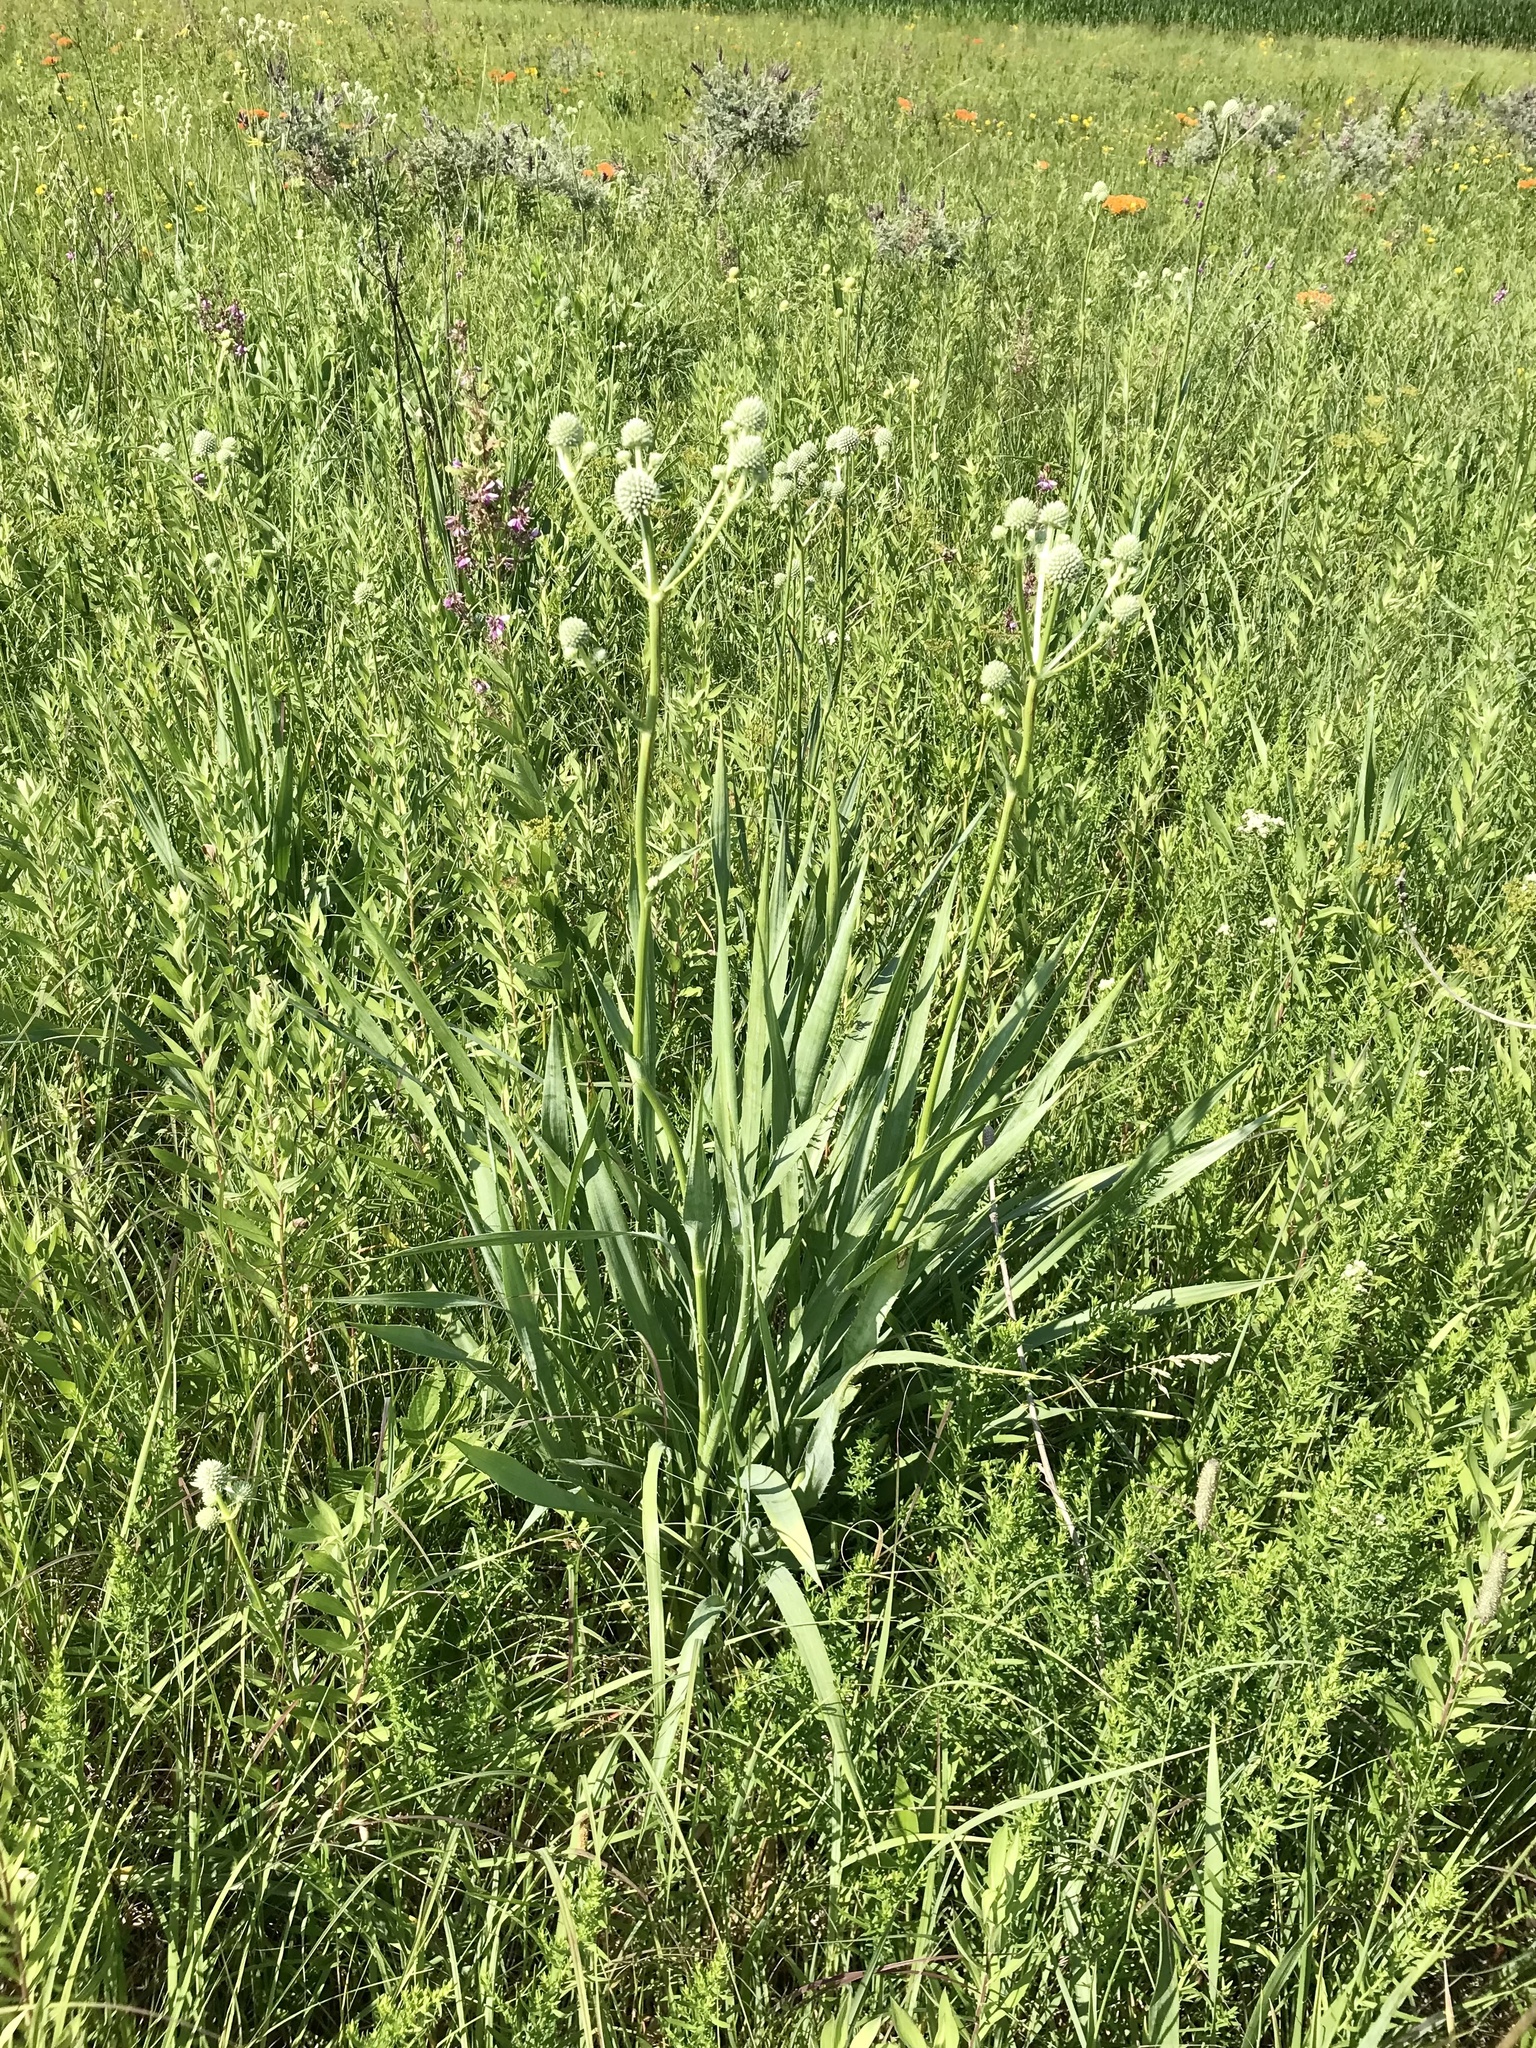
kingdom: Plantae
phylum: Tracheophyta
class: Magnoliopsida
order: Apiales
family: Apiaceae
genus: Eryngium
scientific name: Eryngium yuccifolium
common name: Button eryngo
